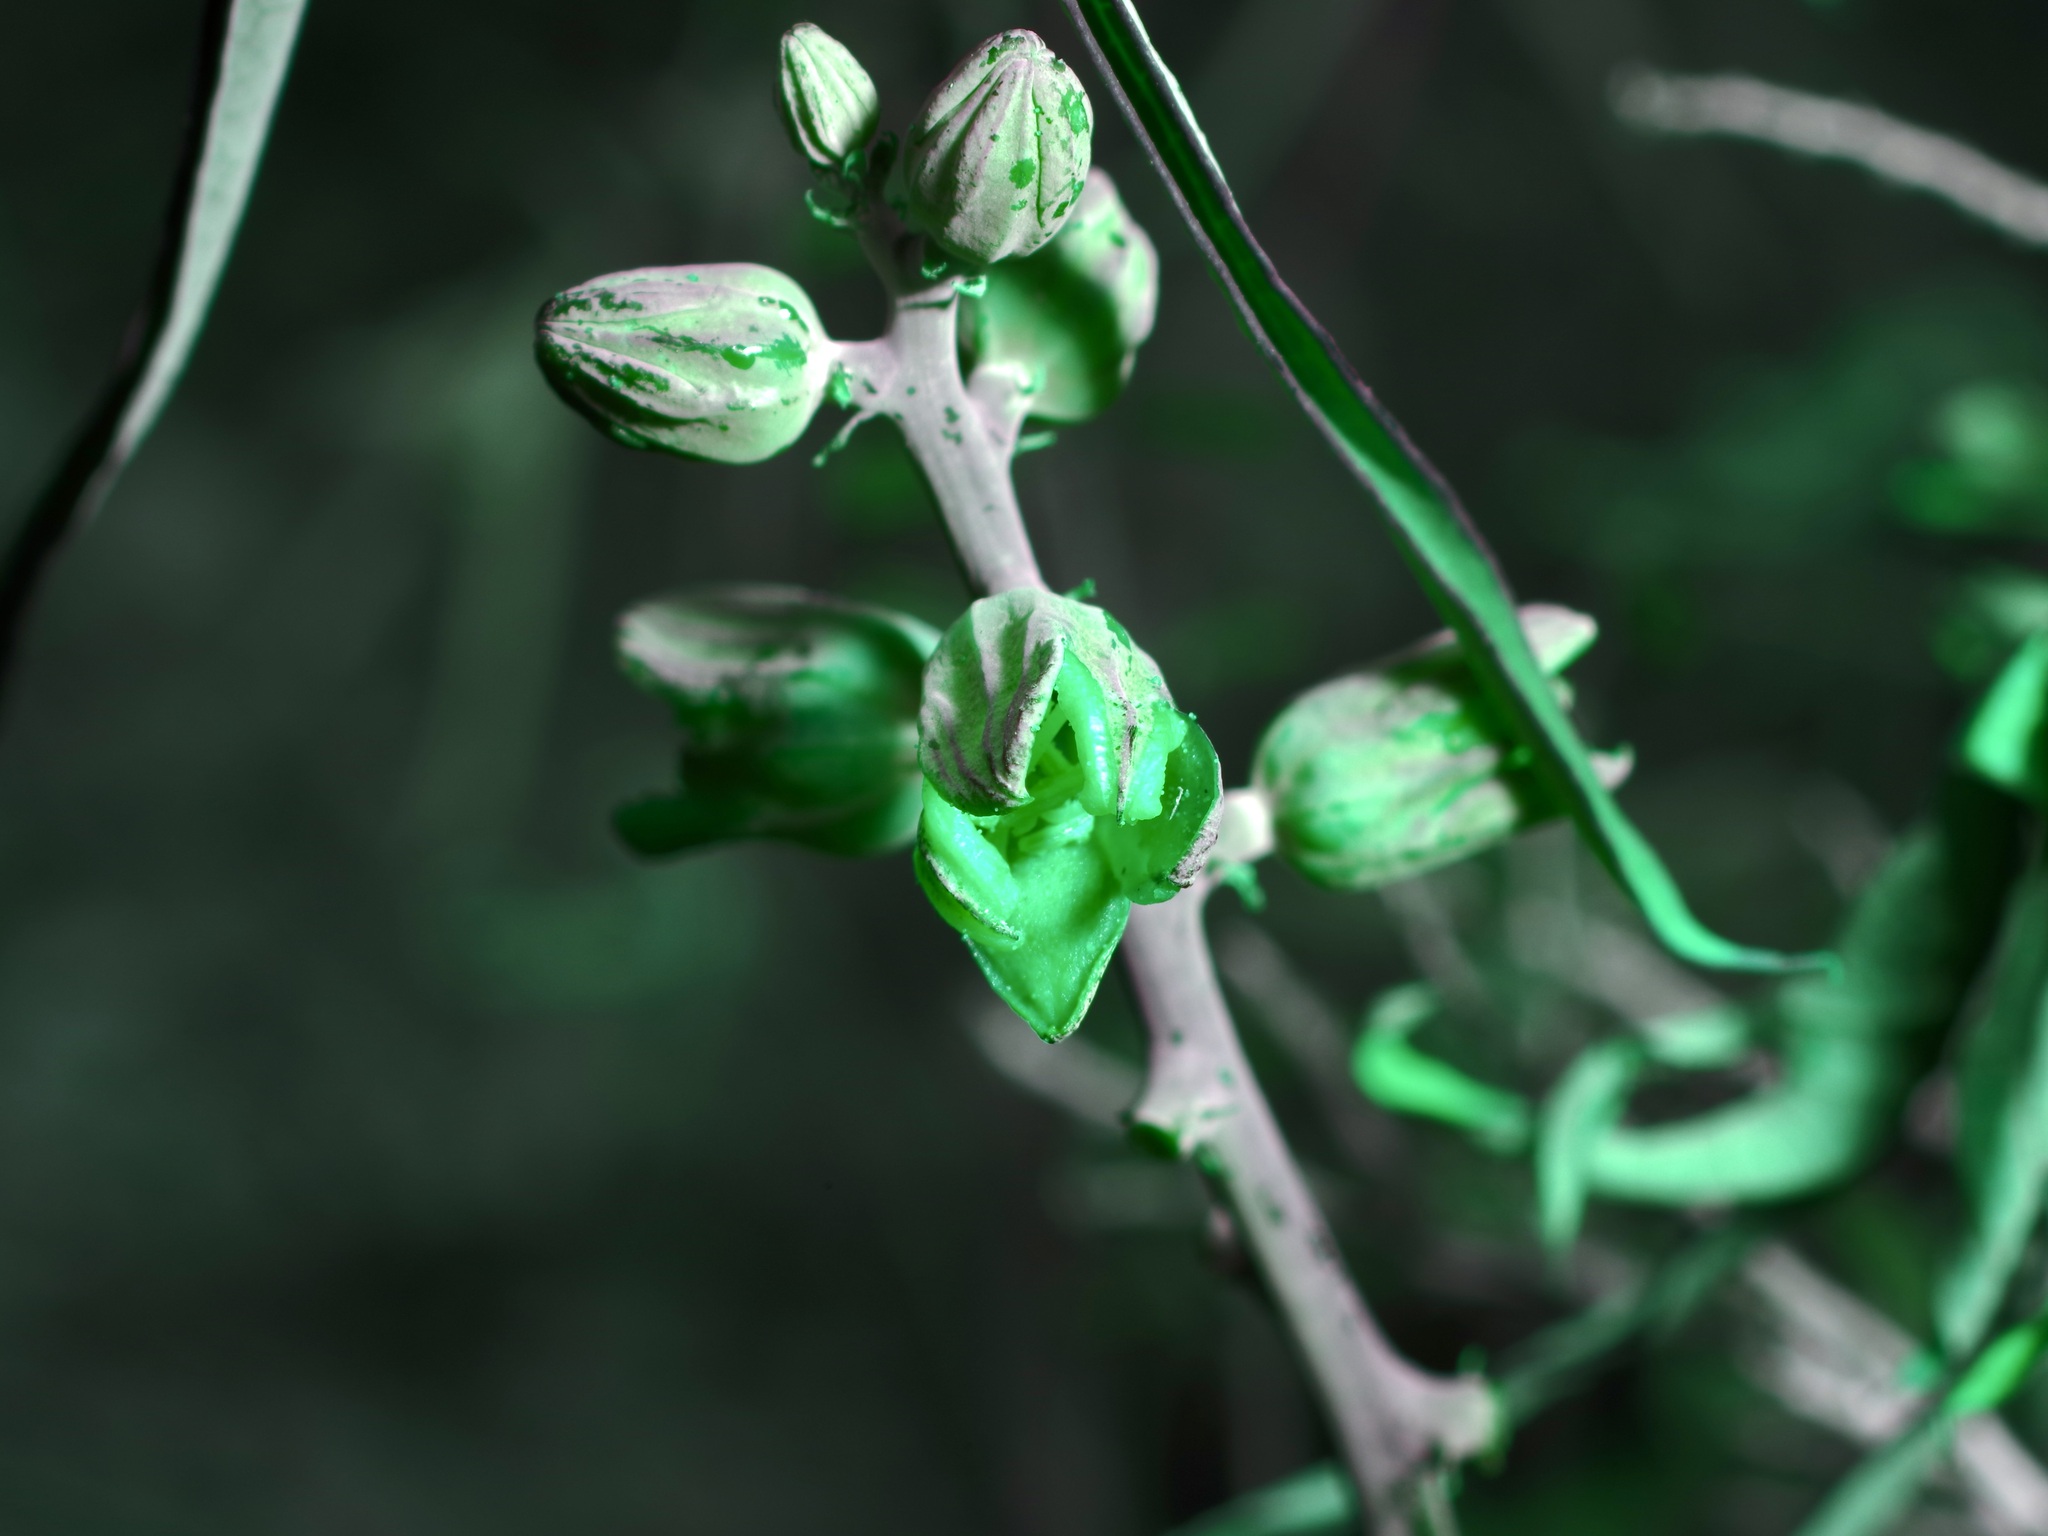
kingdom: Plantae
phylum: Tracheophyta
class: Magnoliopsida
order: Malpighiales
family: Euphorbiaceae
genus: Manihot
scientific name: Manihot subspicata
